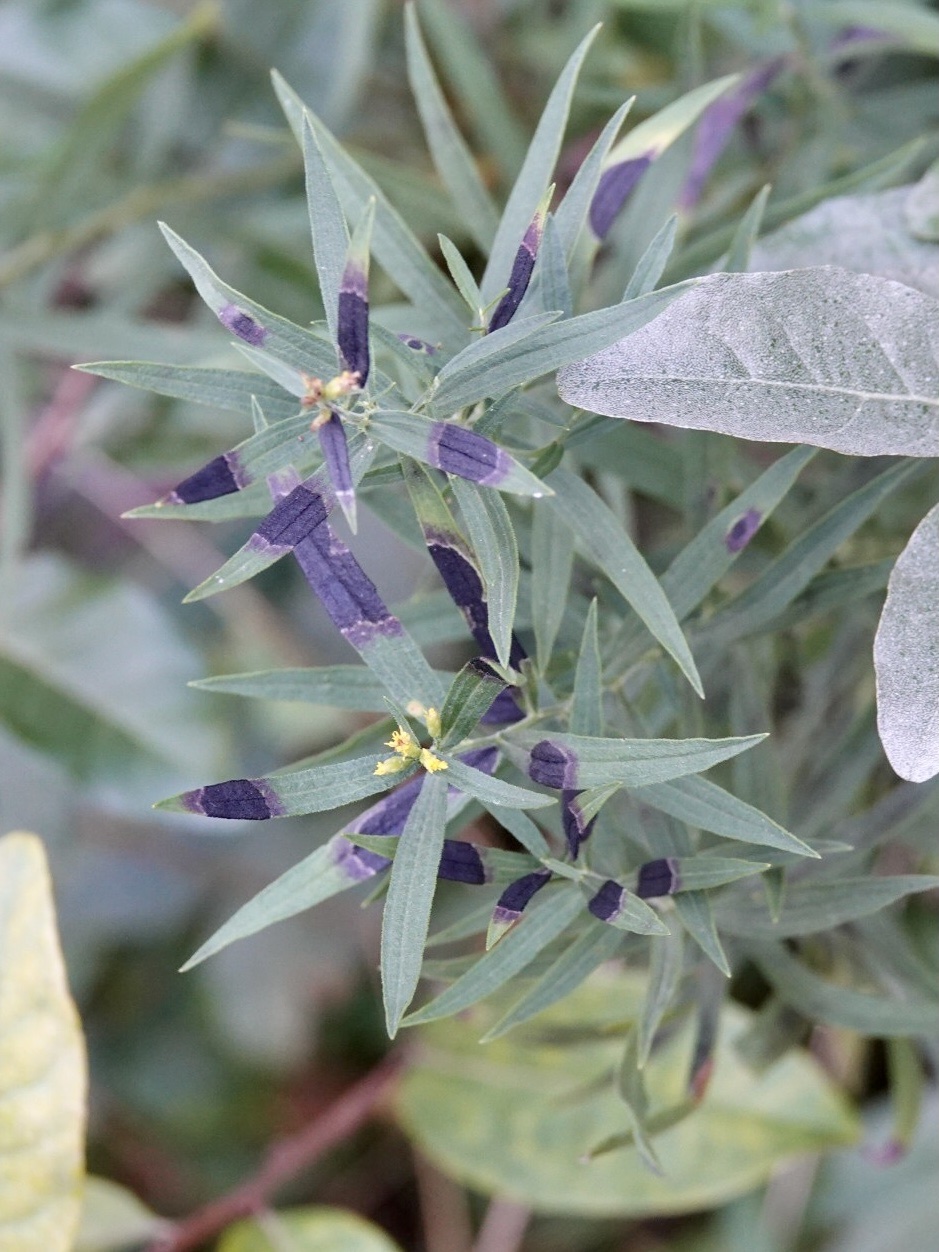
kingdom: Animalia
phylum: Arthropoda
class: Insecta
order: Diptera
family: Cecidomyiidae
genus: Asteromyia
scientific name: Asteromyia euthamiae
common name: Euthamia leaf gall midge
